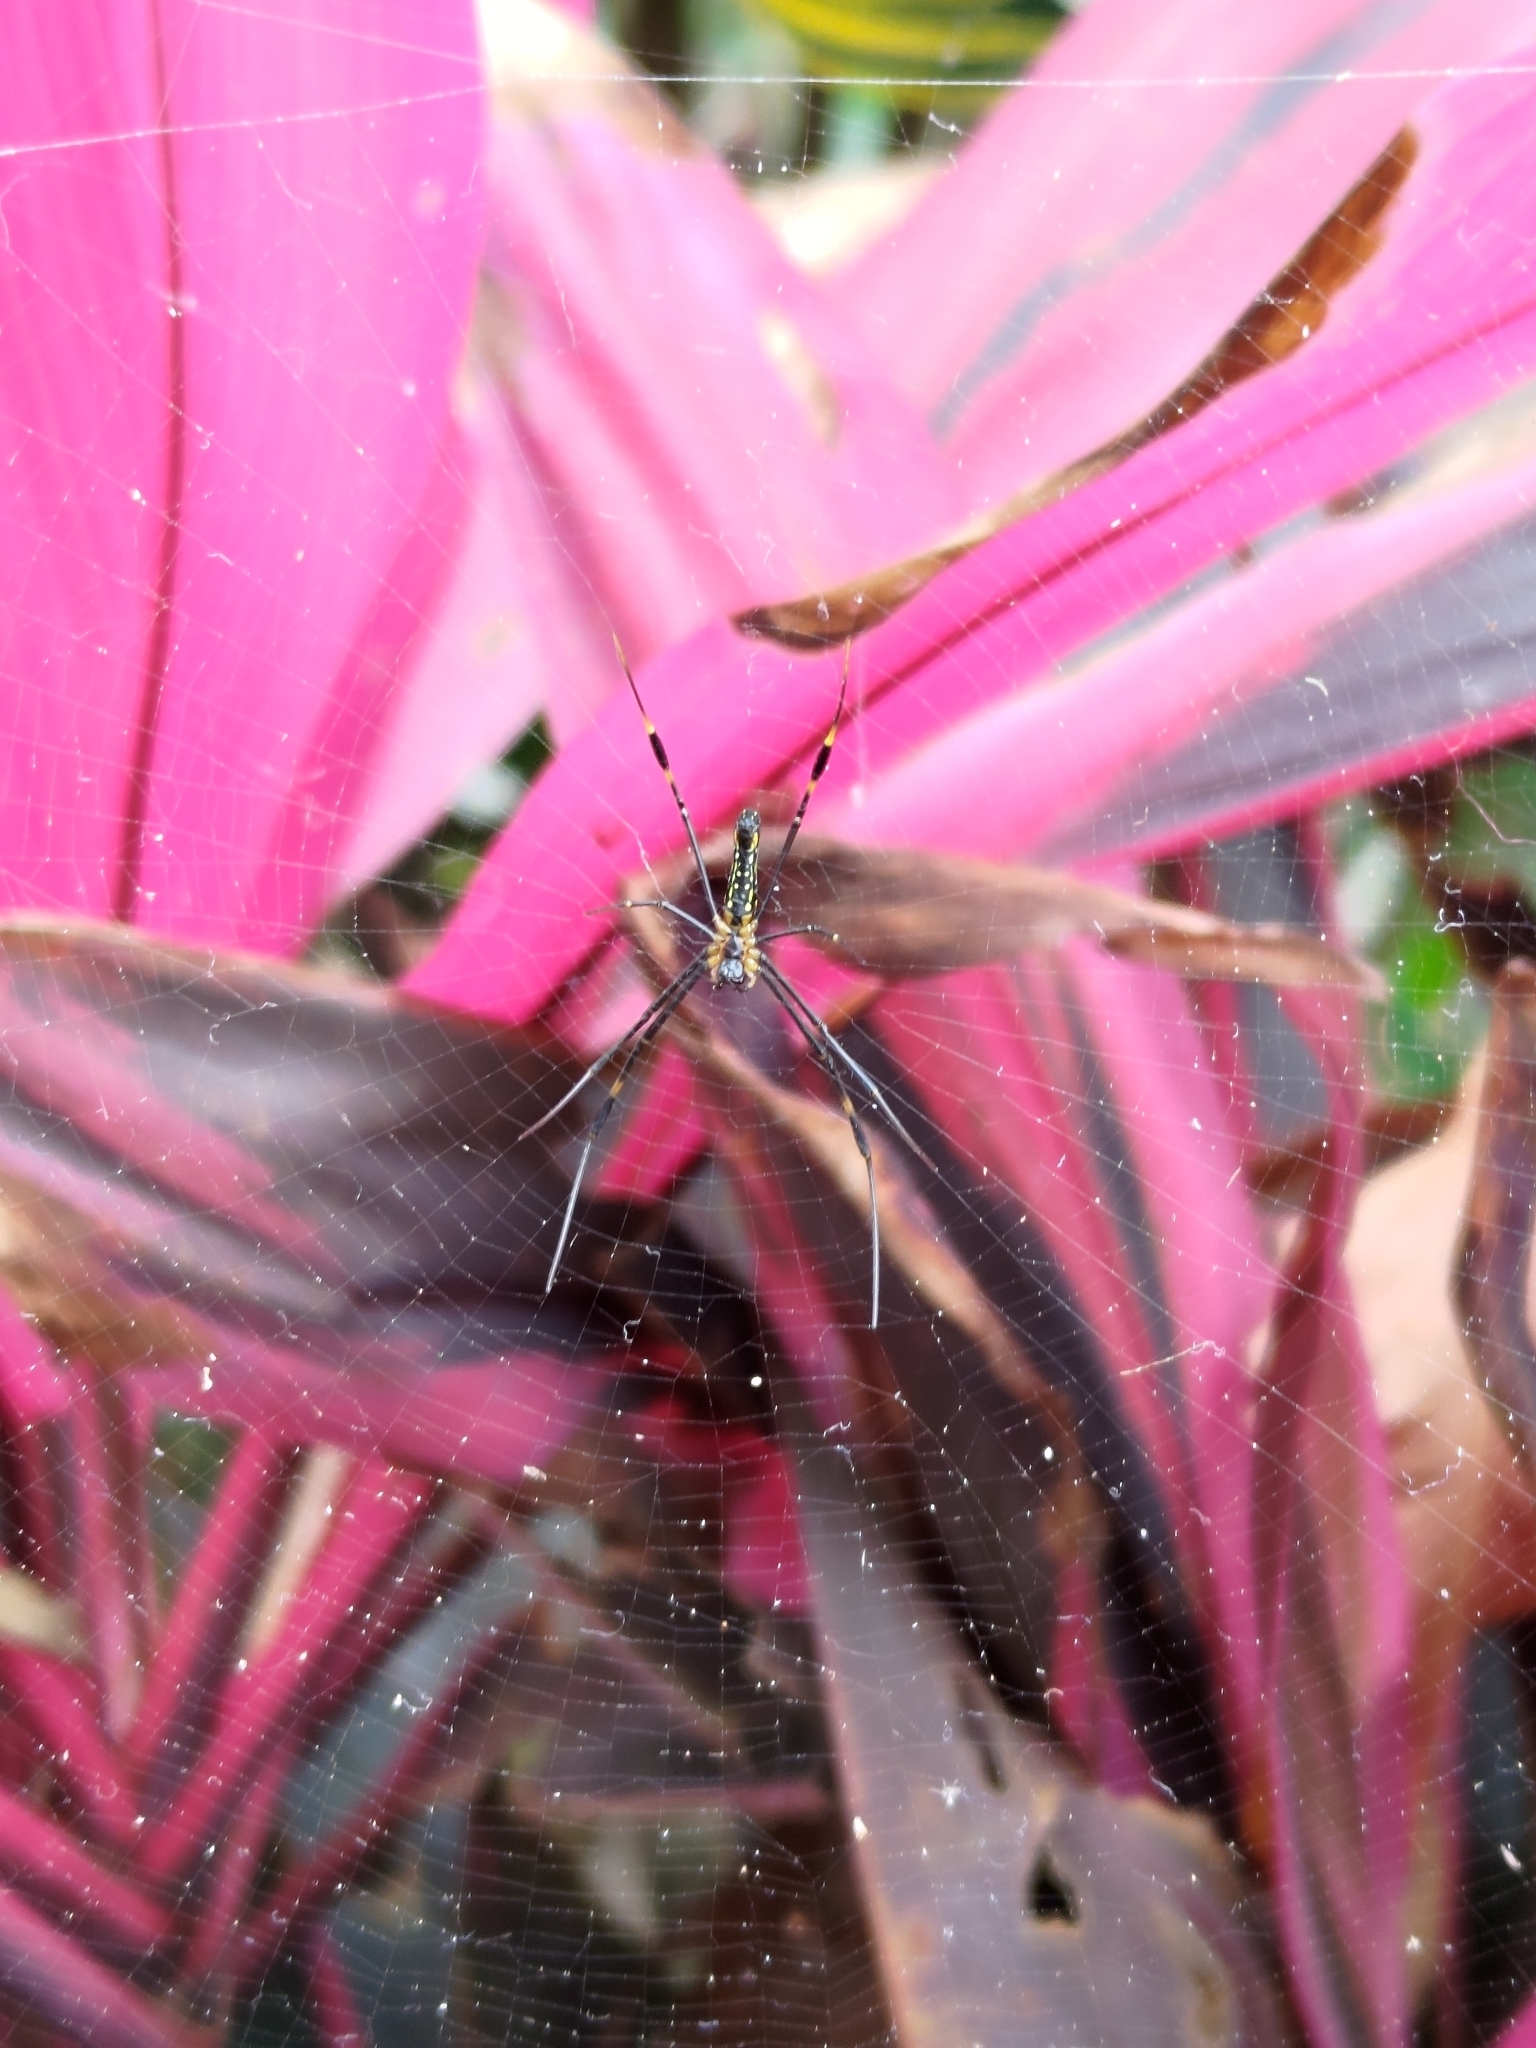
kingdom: Animalia
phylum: Arthropoda
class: Arachnida
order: Araneae
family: Araneidae
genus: Nephila
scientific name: Nephila pilipes
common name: Giant golden orb weaver
